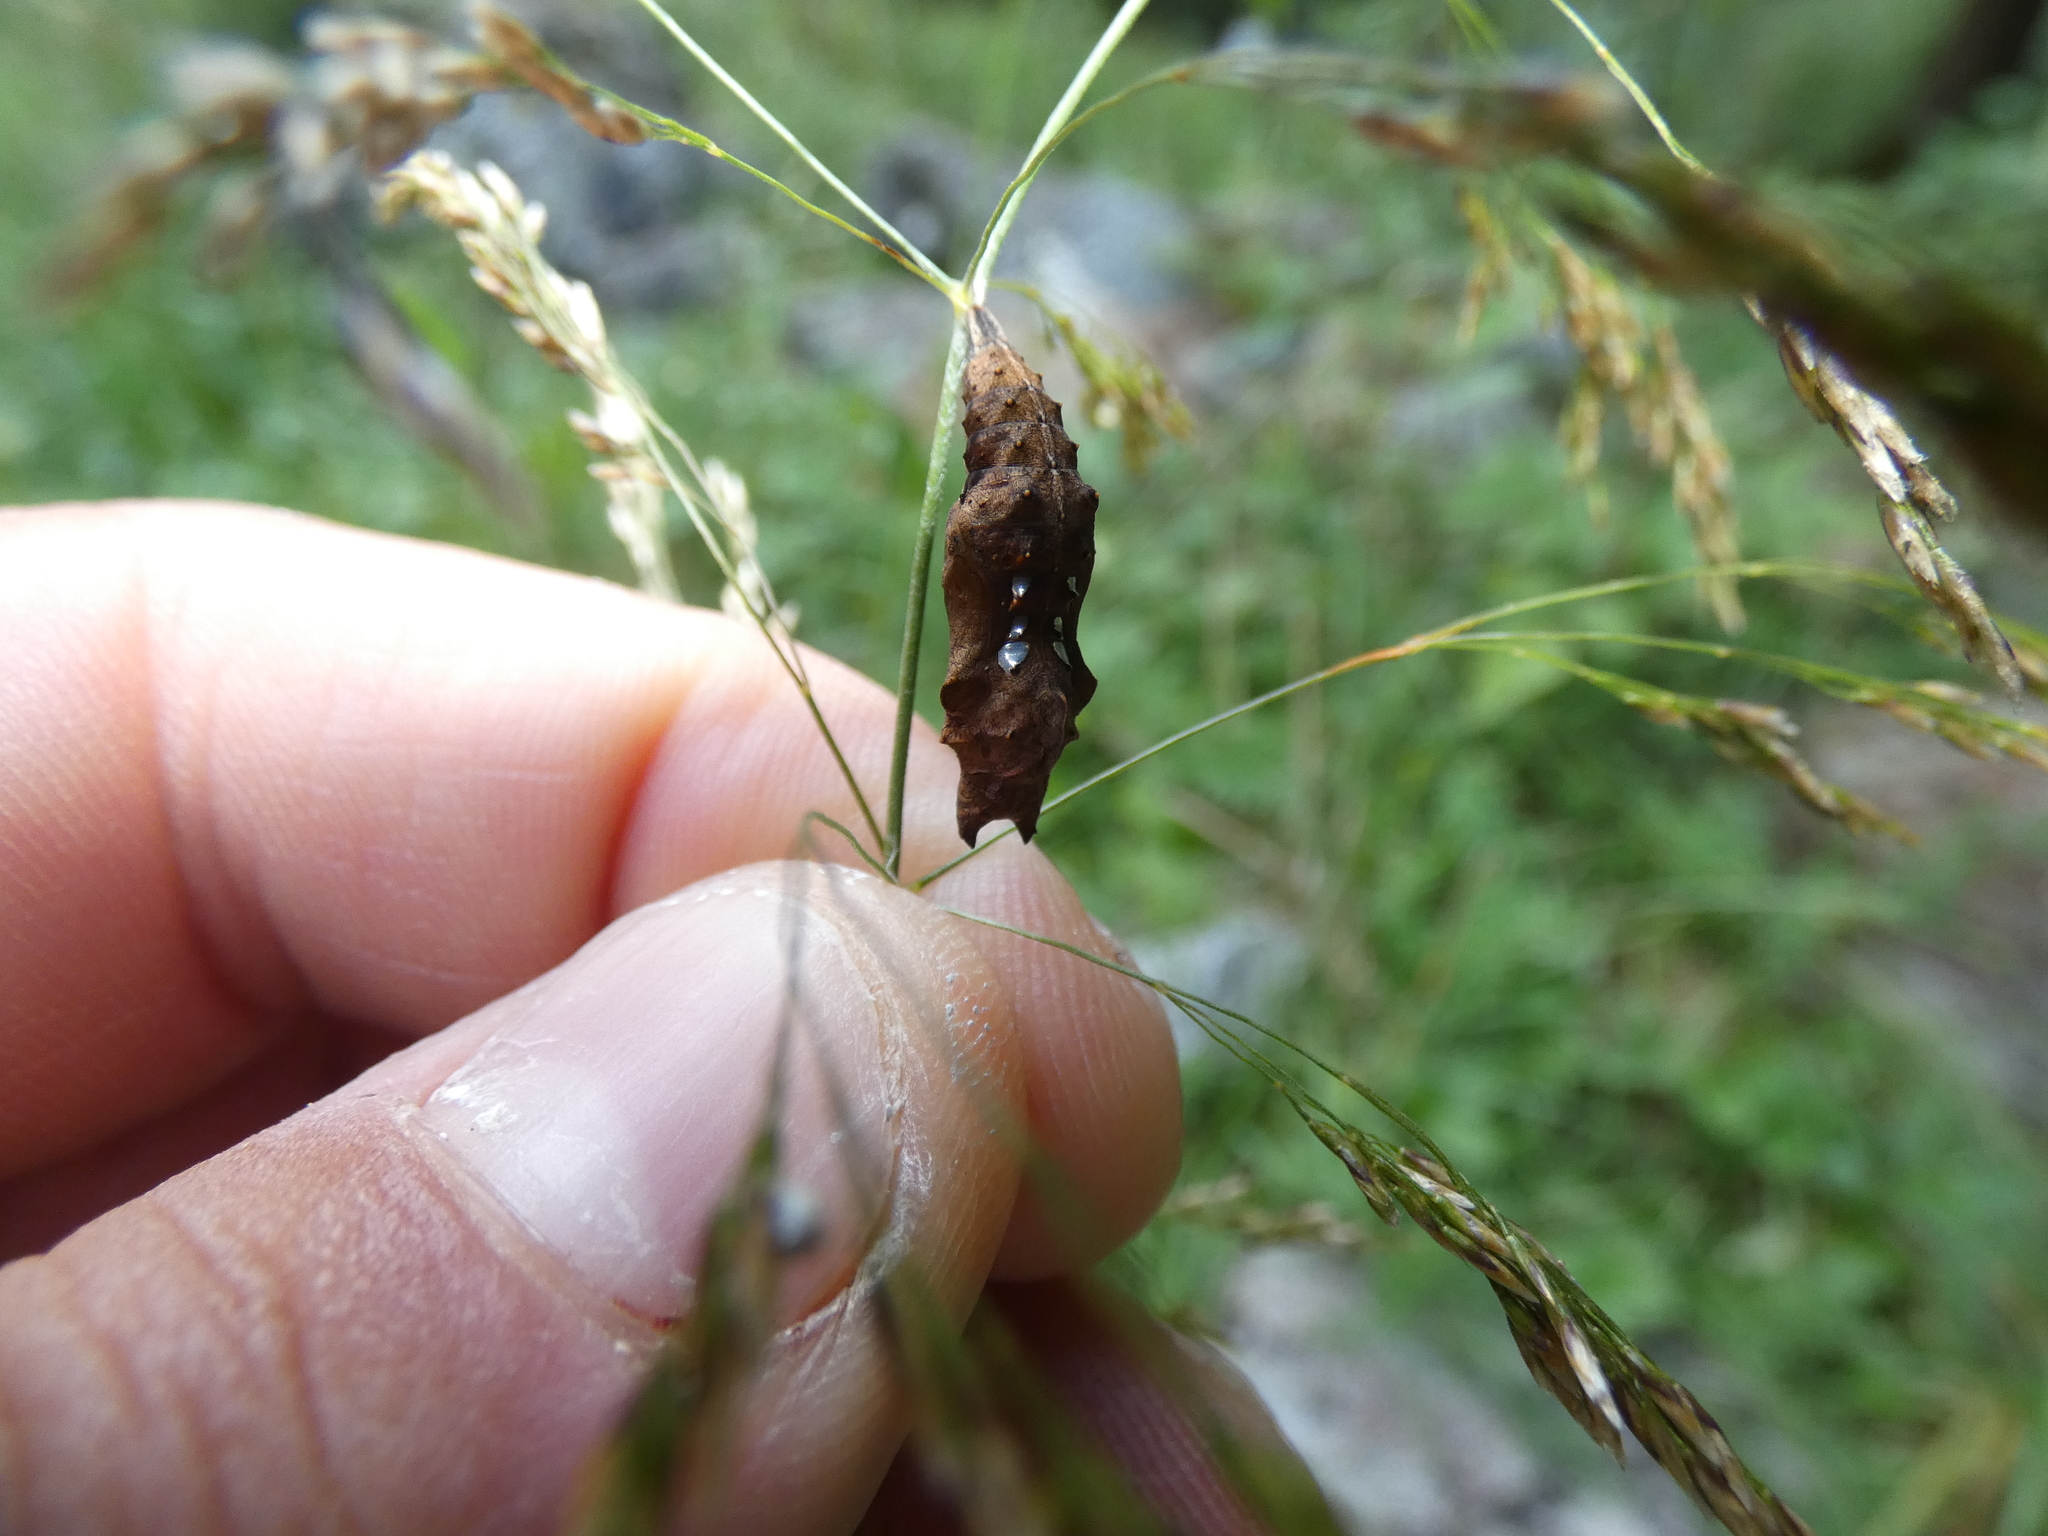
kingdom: Animalia
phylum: Arthropoda
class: Insecta
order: Lepidoptera
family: Nymphalidae
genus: Polygonia
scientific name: Polygonia c-album
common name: Comma
